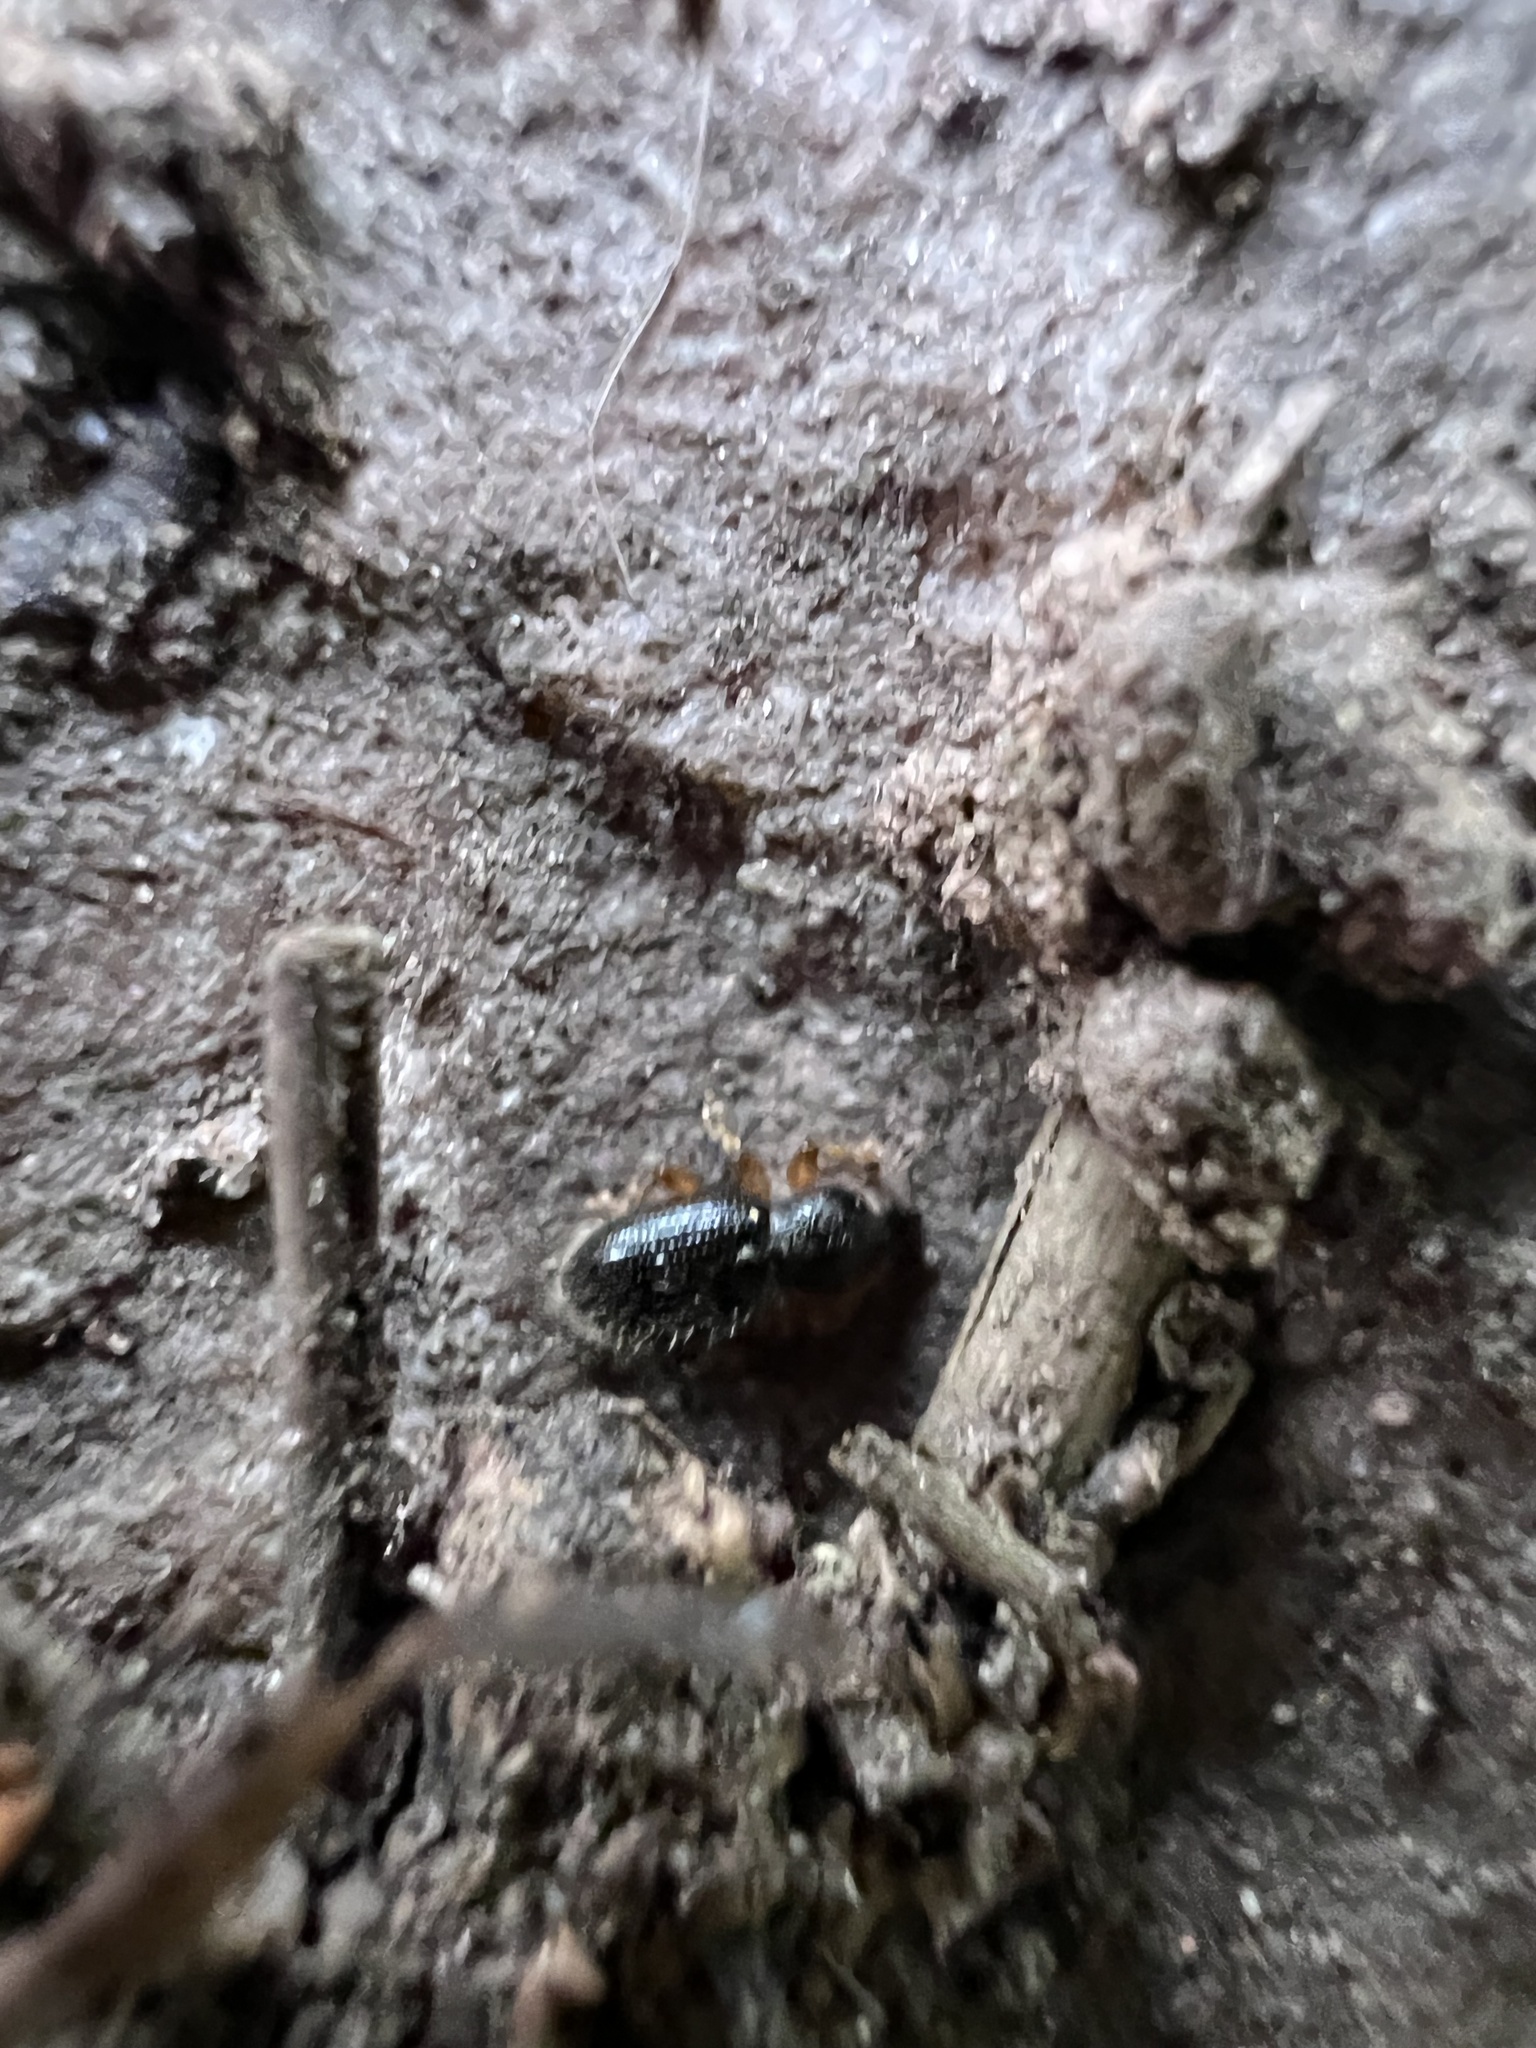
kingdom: Animalia
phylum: Arthropoda
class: Insecta
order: Coleoptera
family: Curculionidae
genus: Exomias
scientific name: Exomias pellucidus
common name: Hairy spider weevil
